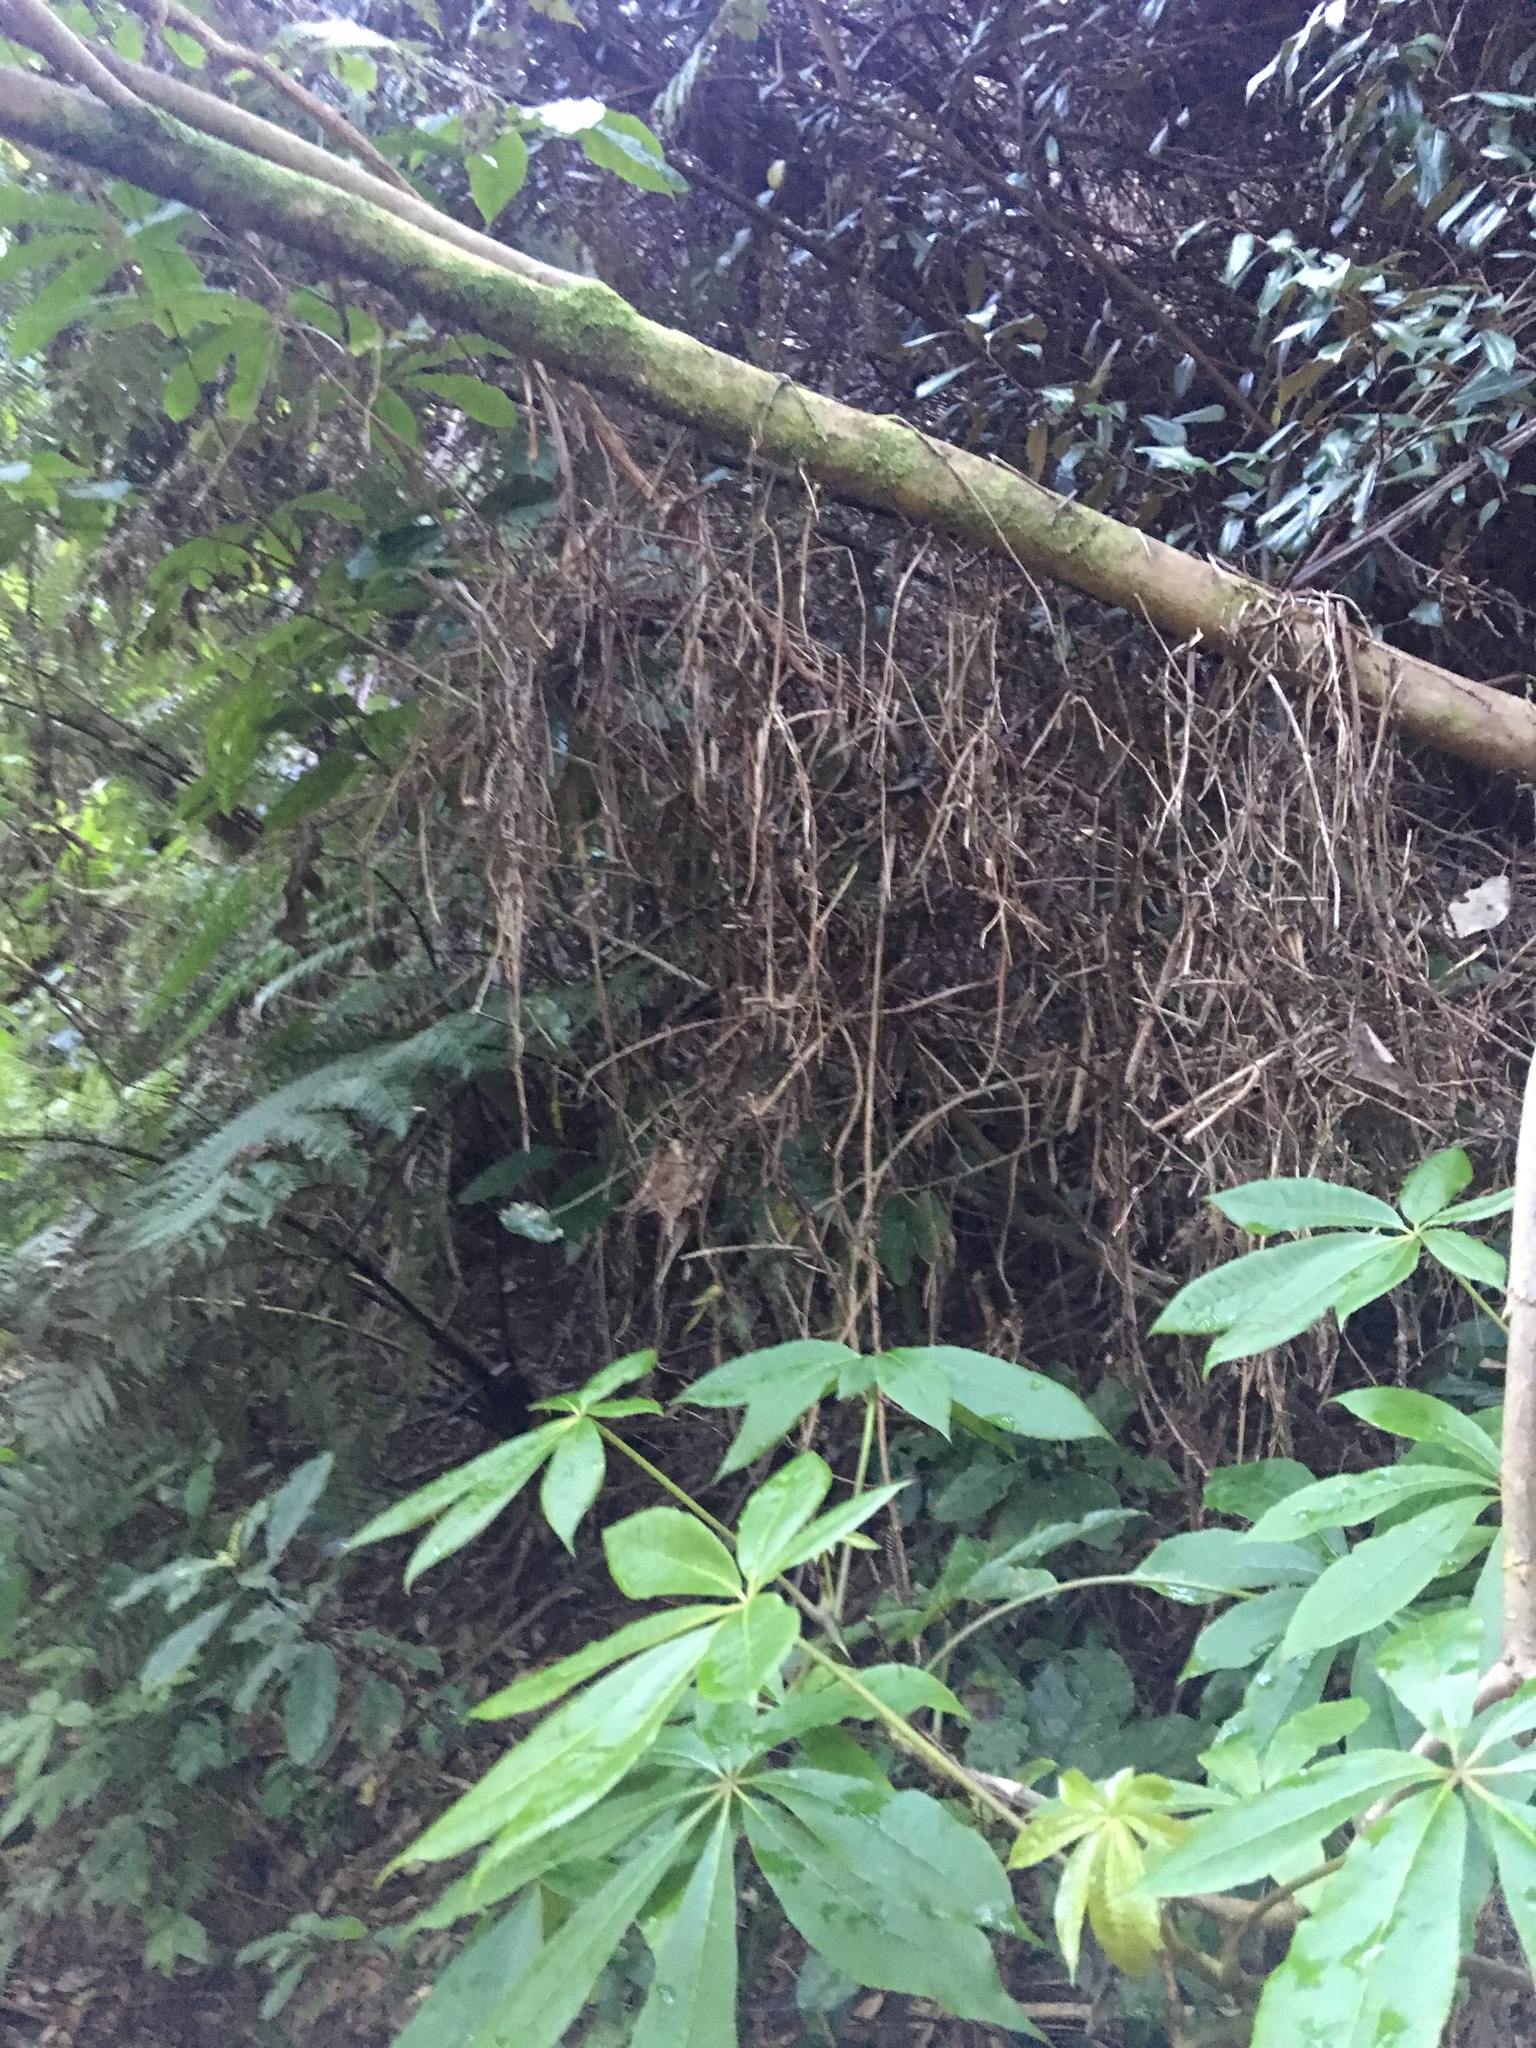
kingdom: Plantae
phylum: Tracheophyta
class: Magnoliopsida
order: Apiales
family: Araliaceae
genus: Schefflera
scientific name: Schefflera digitata
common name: Pate
